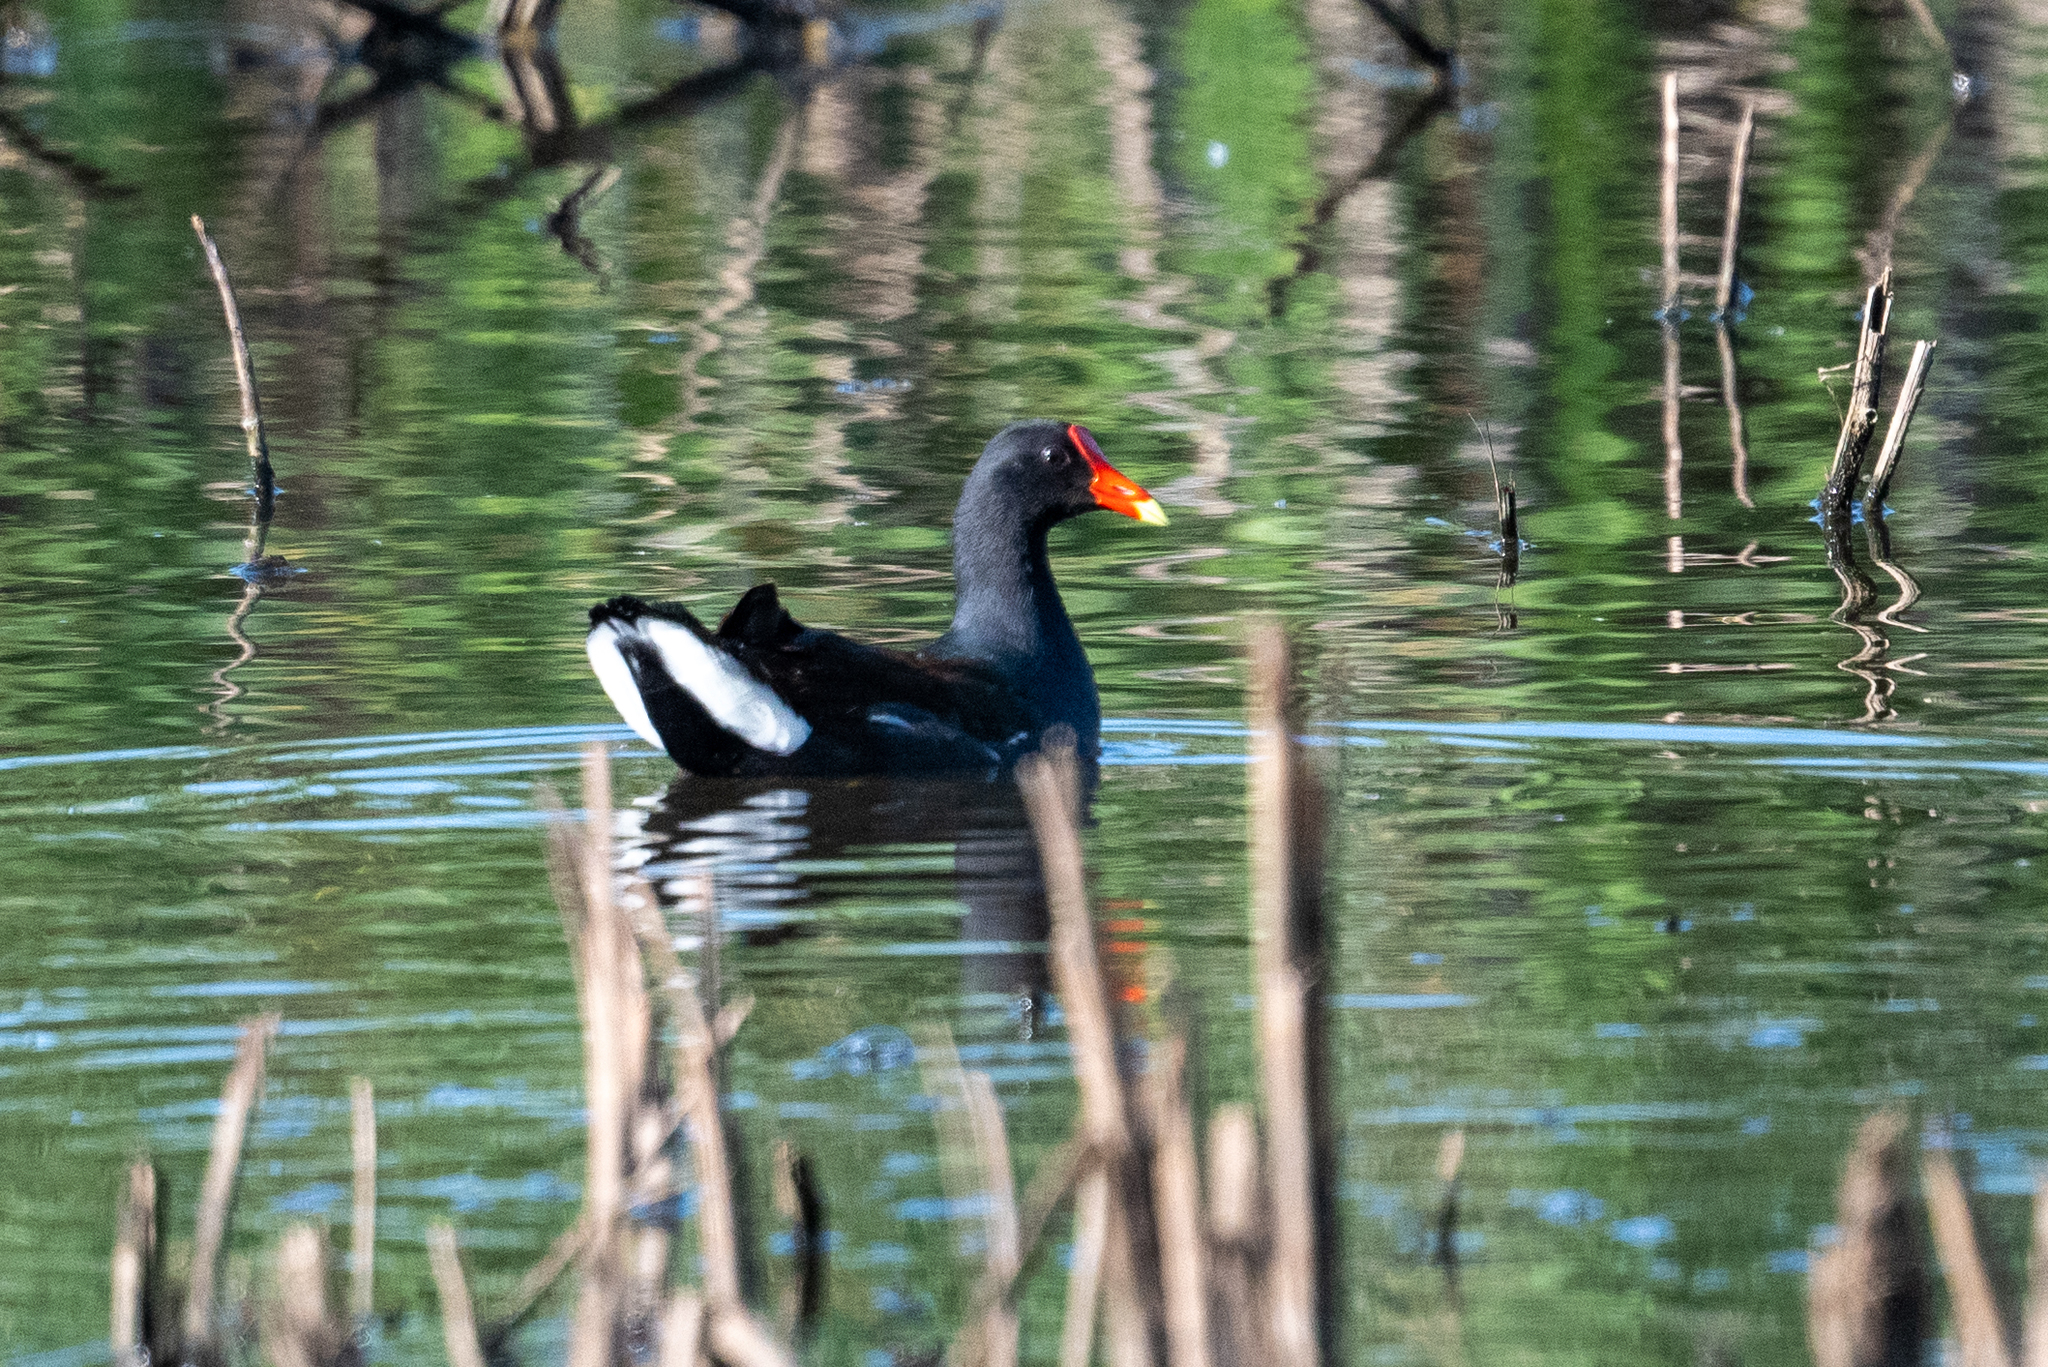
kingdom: Animalia
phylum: Chordata
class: Aves
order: Gruiformes
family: Rallidae
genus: Gallinula
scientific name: Gallinula chloropus
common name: Common moorhen
